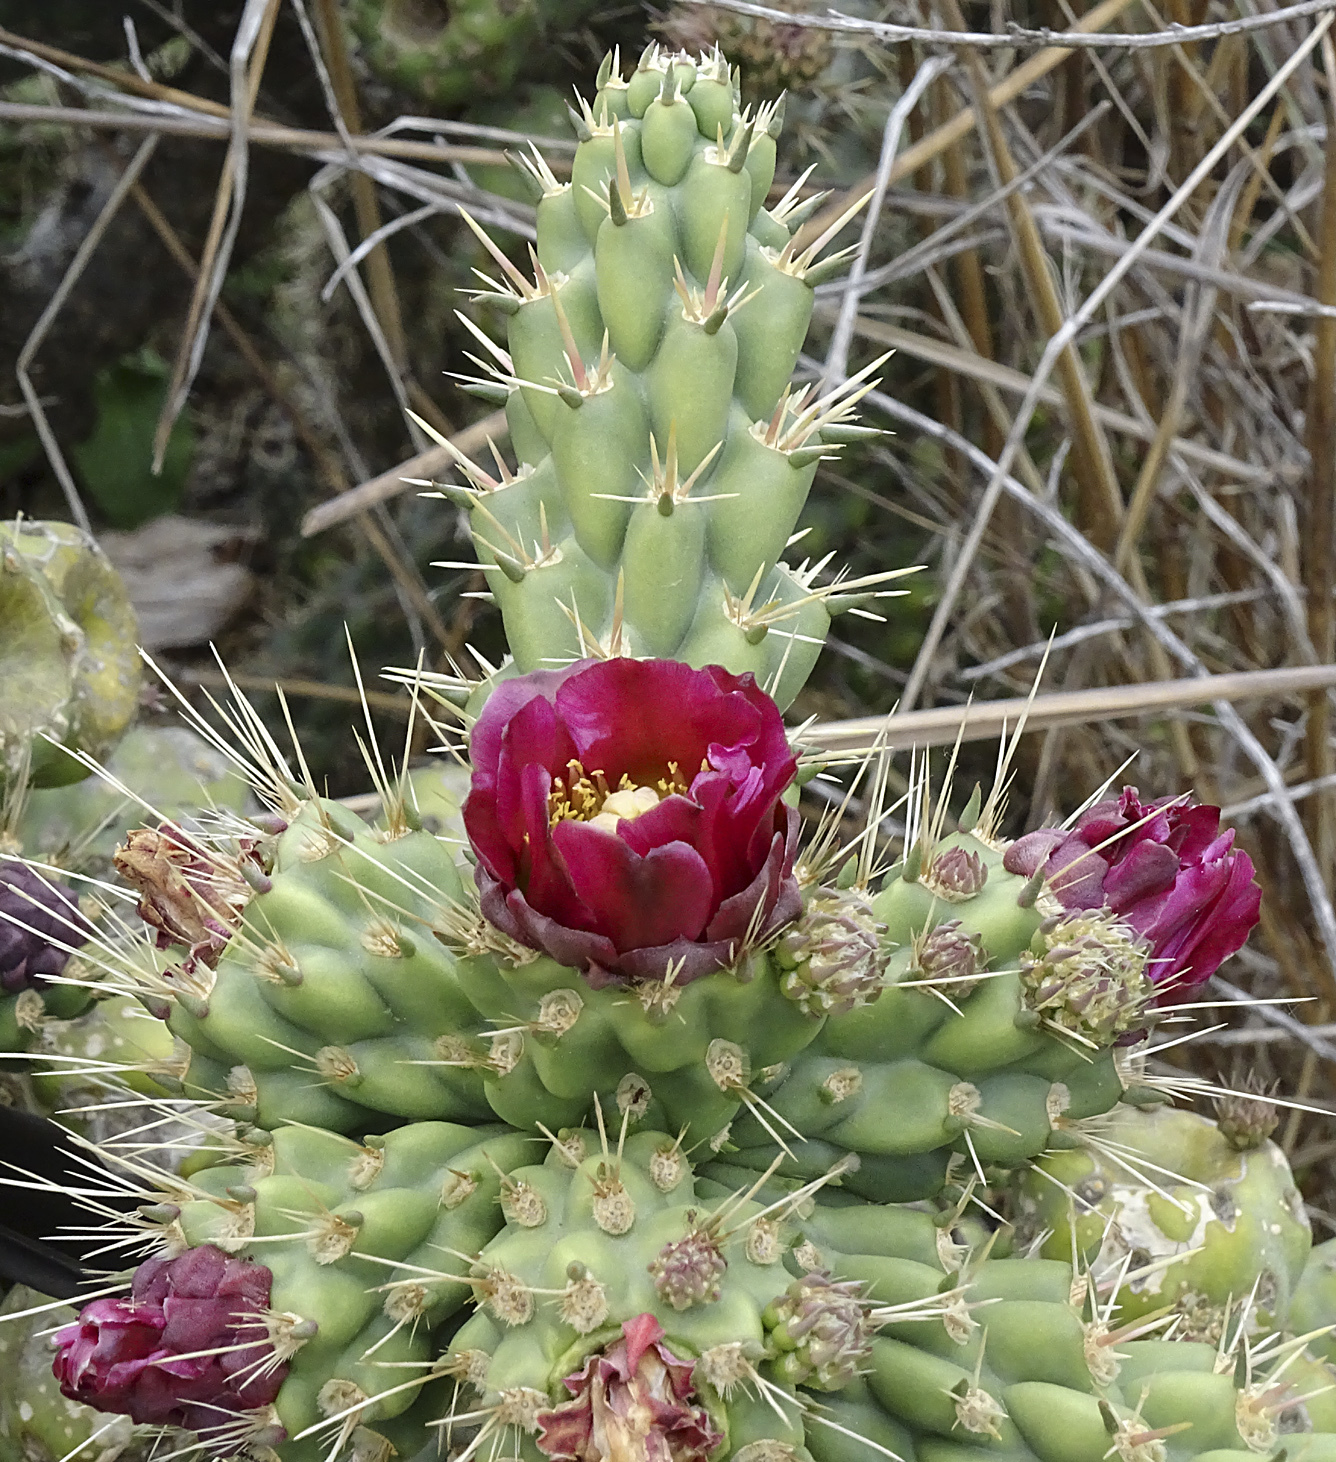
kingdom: Plantae
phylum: Tracheophyta
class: Magnoliopsida
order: Caryophyllales
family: Cactaceae
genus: Cylindropuntia
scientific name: Cylindropuntia prolifera
